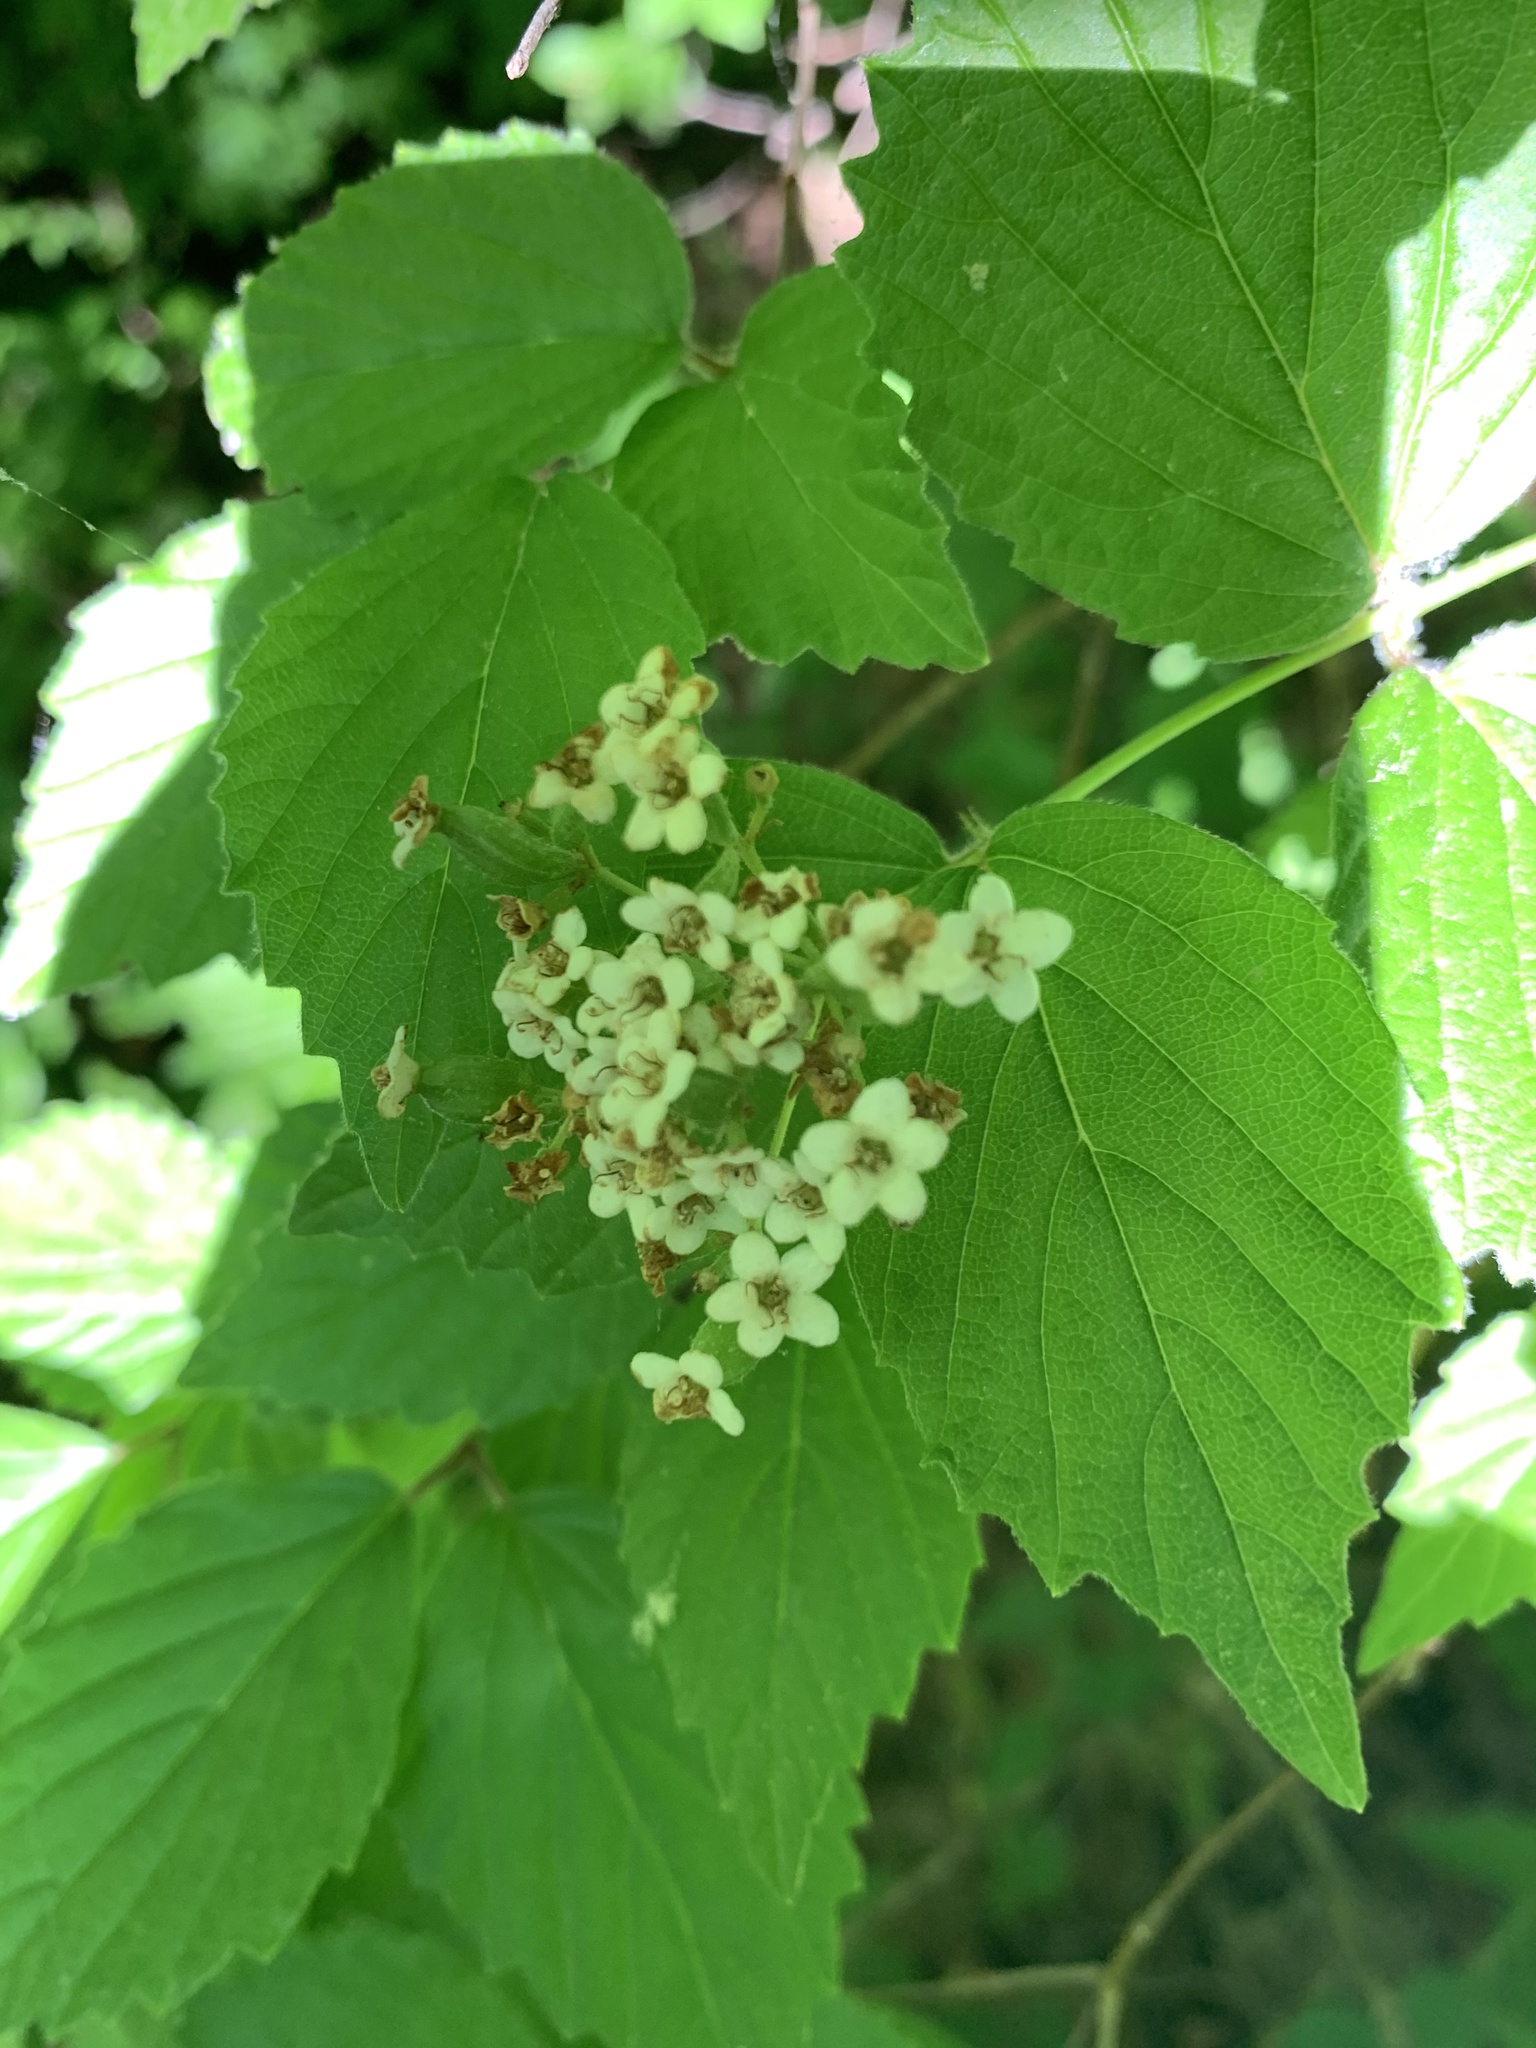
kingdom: Plantae
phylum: Tracheophyta
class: Magnoliopsida
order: Dipsacales
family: Viburnaceae
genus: Viburnum
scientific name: Viburnum rafinesqueanum
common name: Downy arrow-wood
